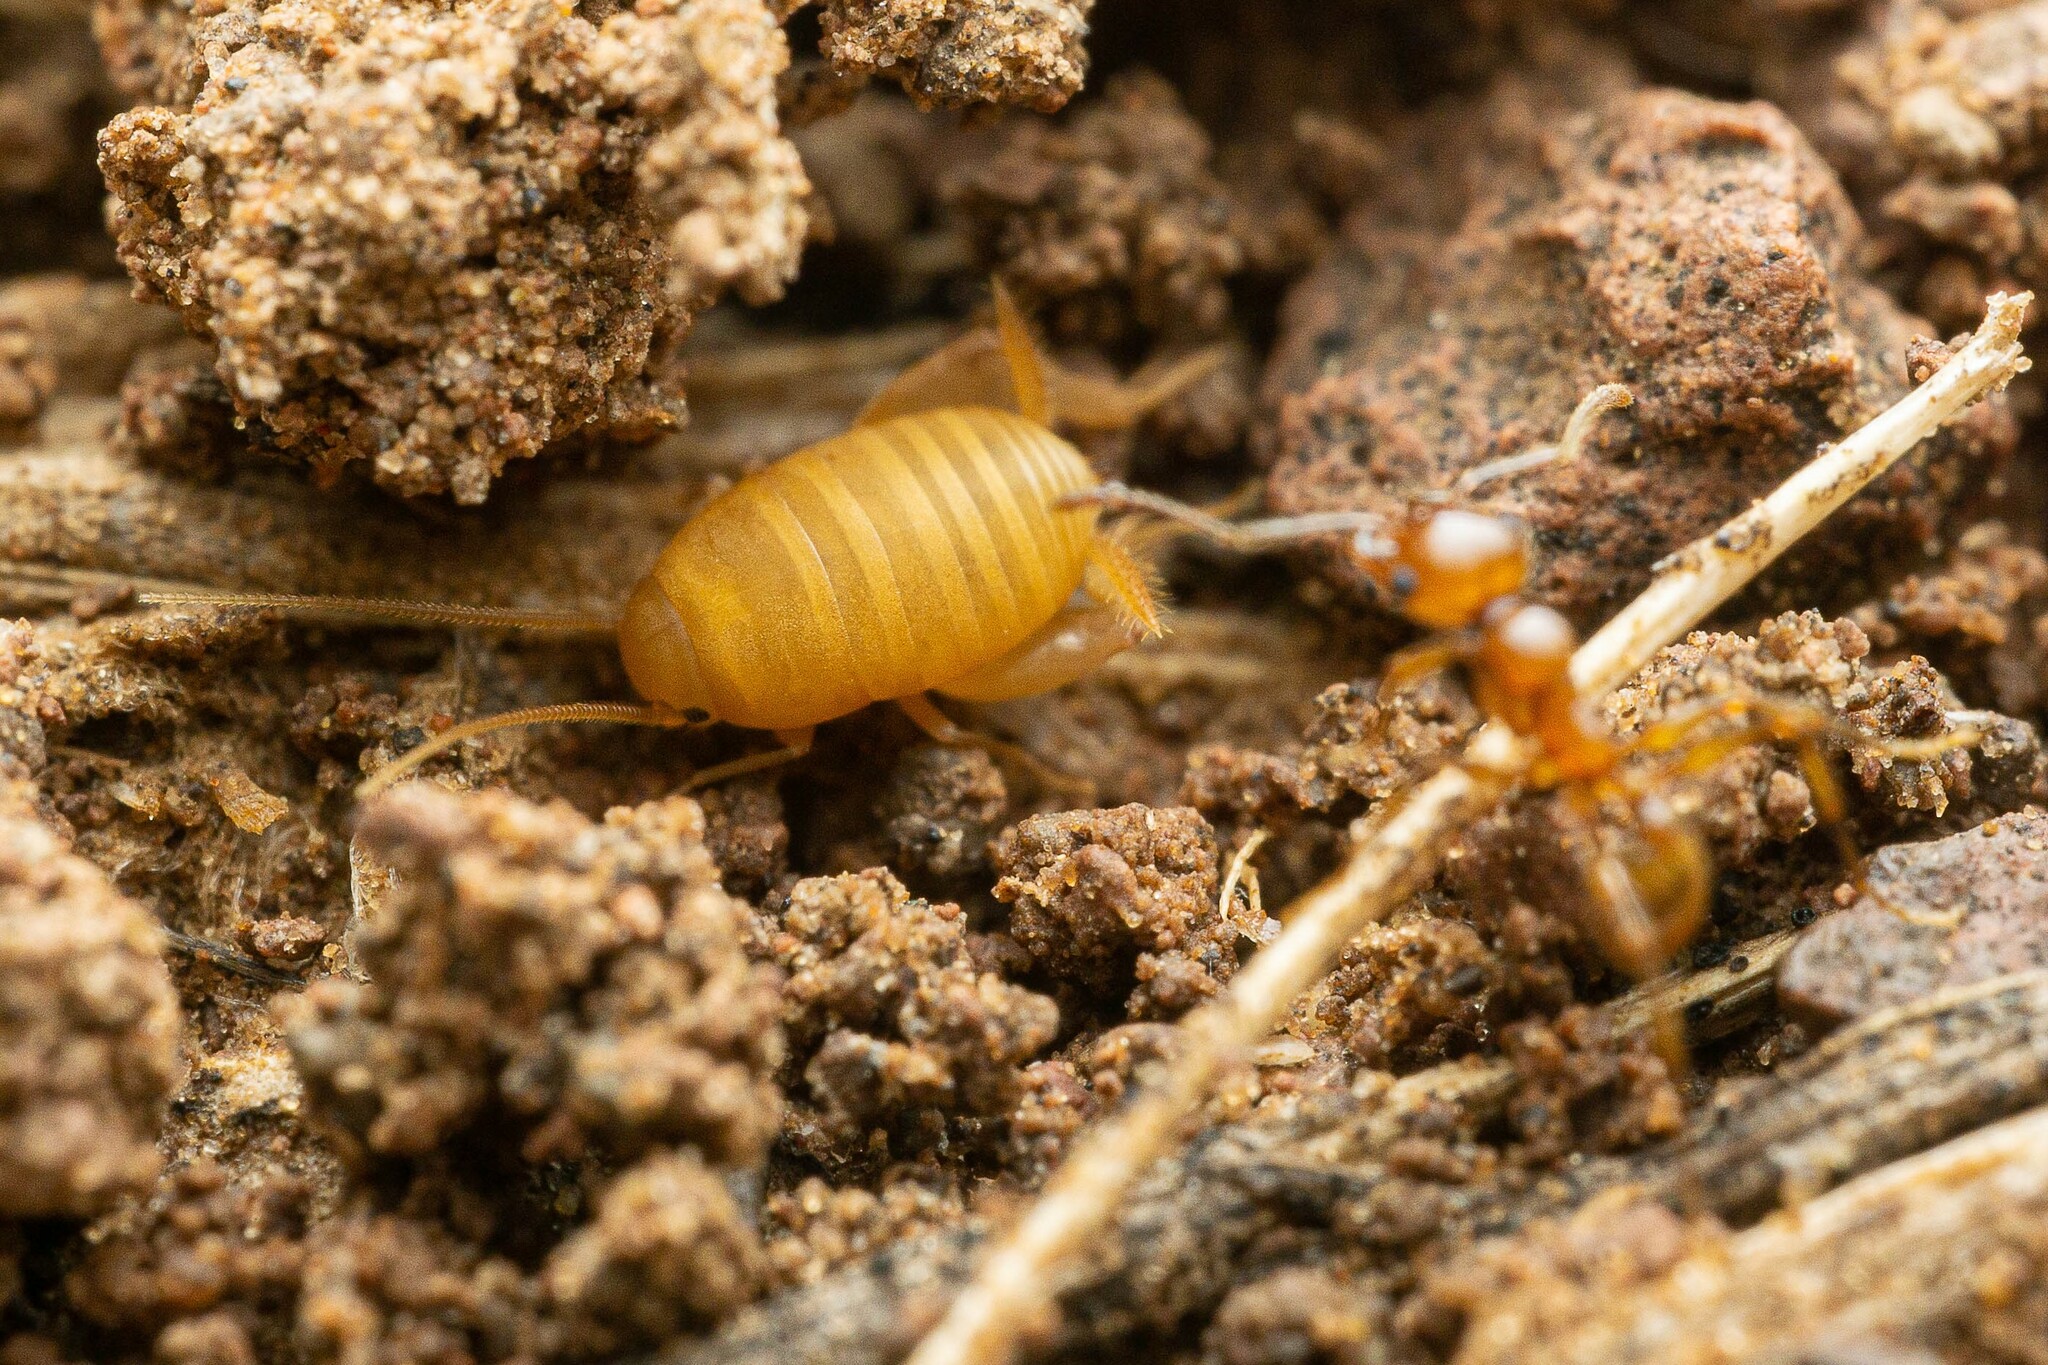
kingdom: Animalia
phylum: Arthropoda
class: Insecta
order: Orthoptera
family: Myrmecophilidae
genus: Myrmecophilus
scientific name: Myrmecophilus
